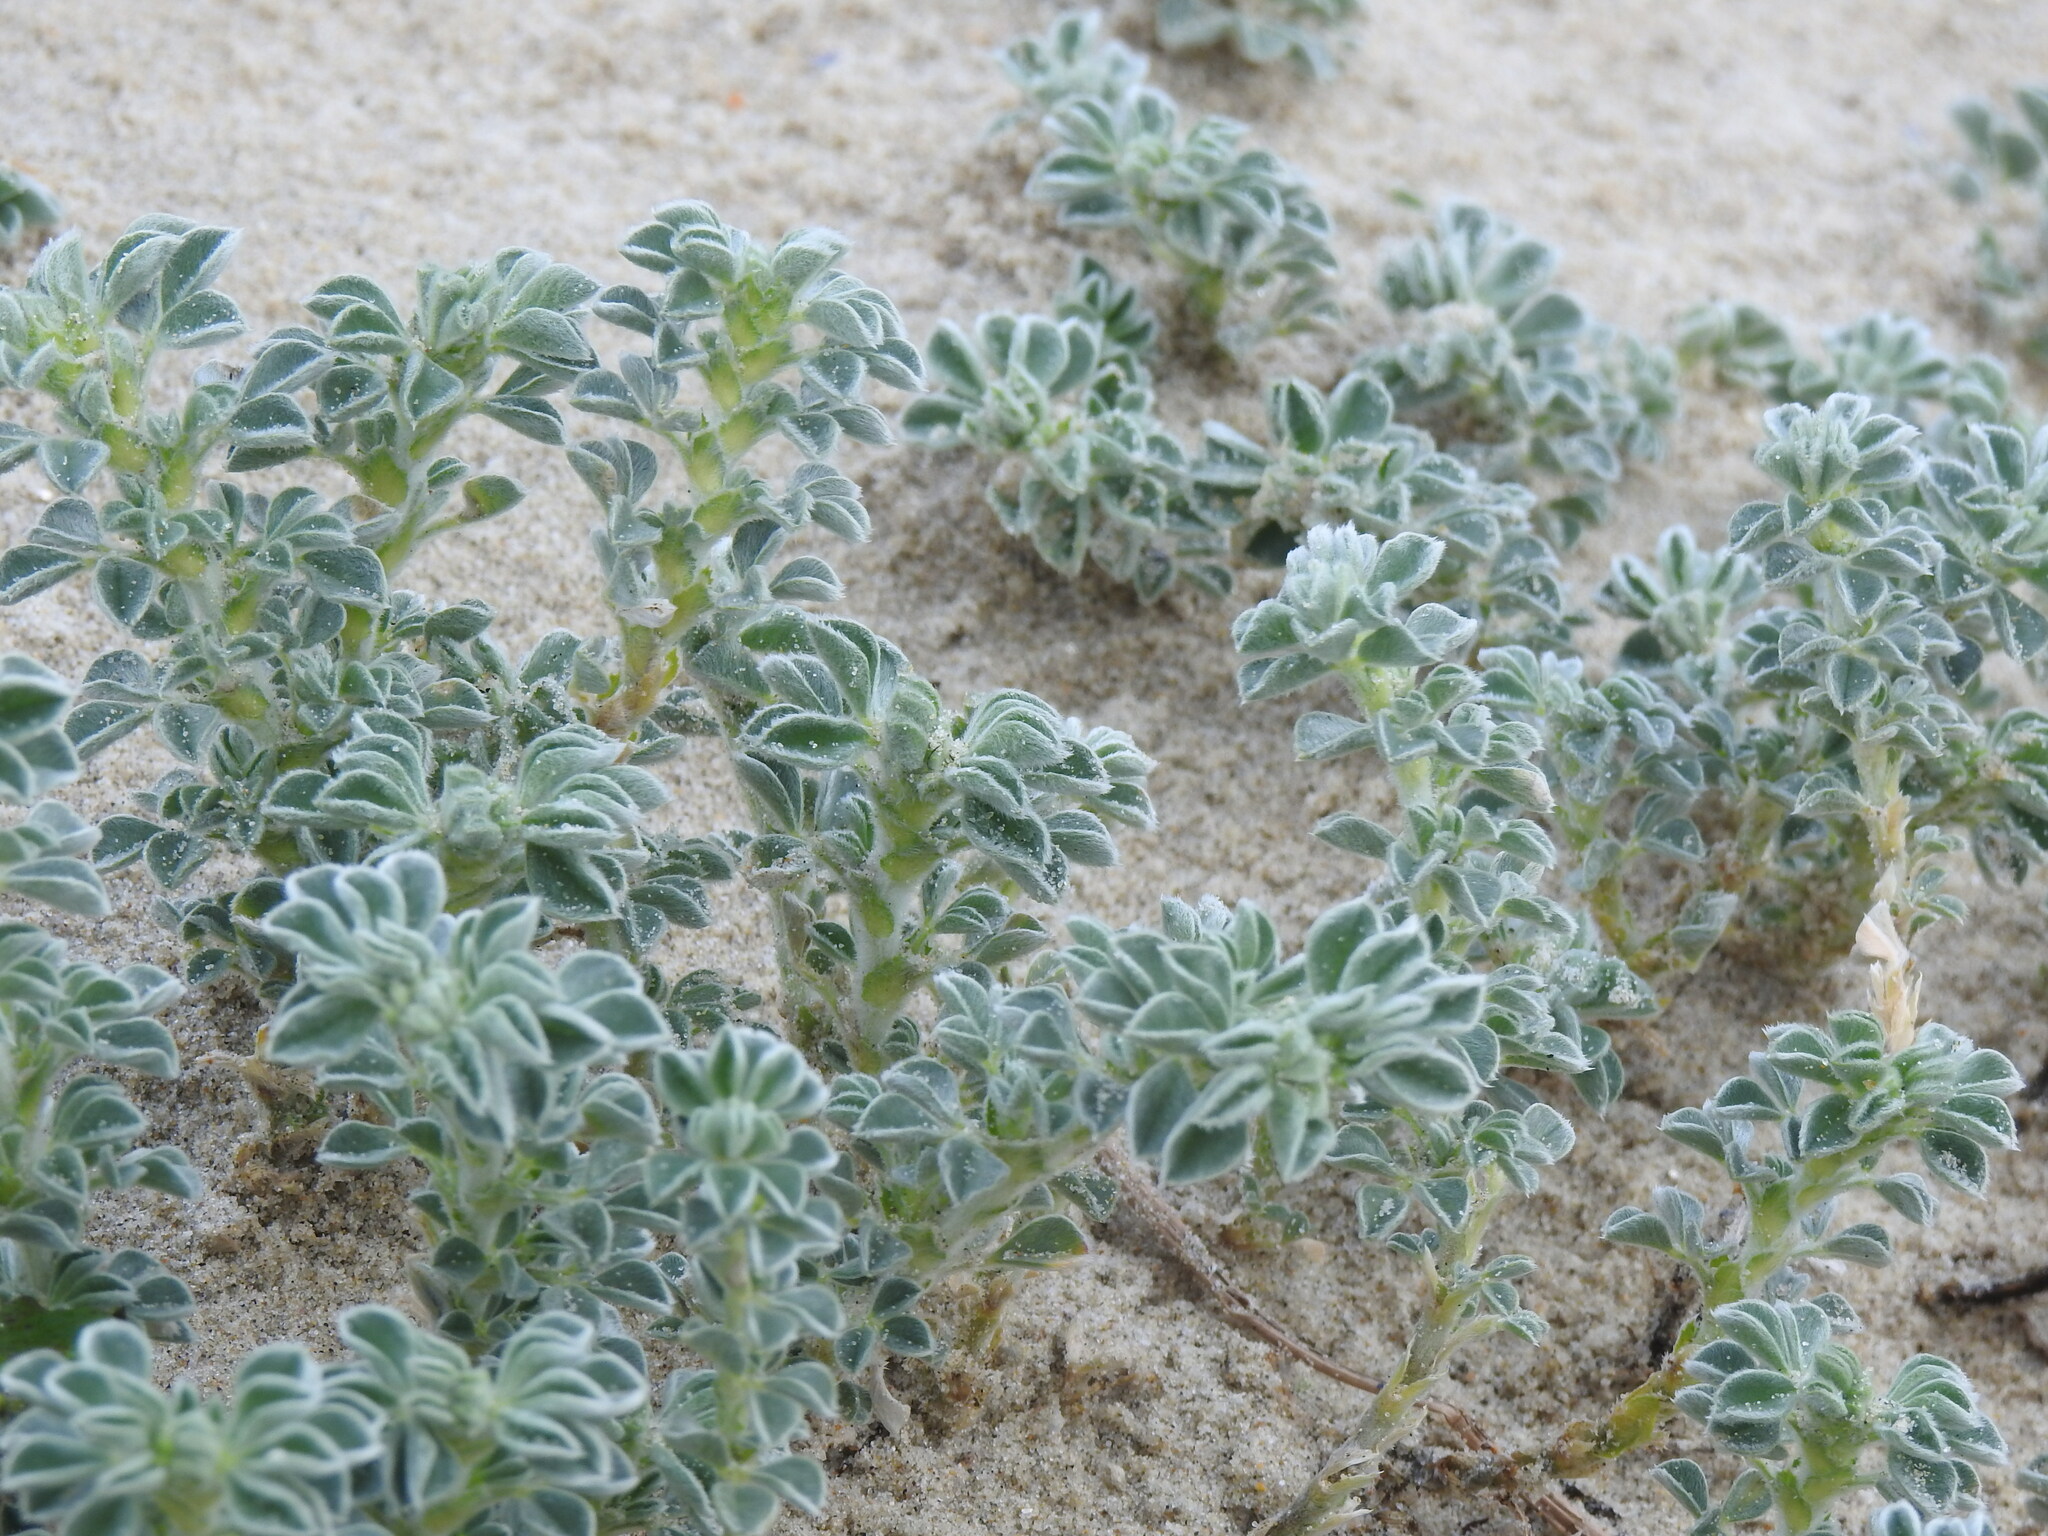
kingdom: Plantae
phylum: Tracheophyta
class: Magnoliopsida
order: Fabales
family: Fabaceae
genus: Medicago
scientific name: Medicago marina
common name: Sea medick
